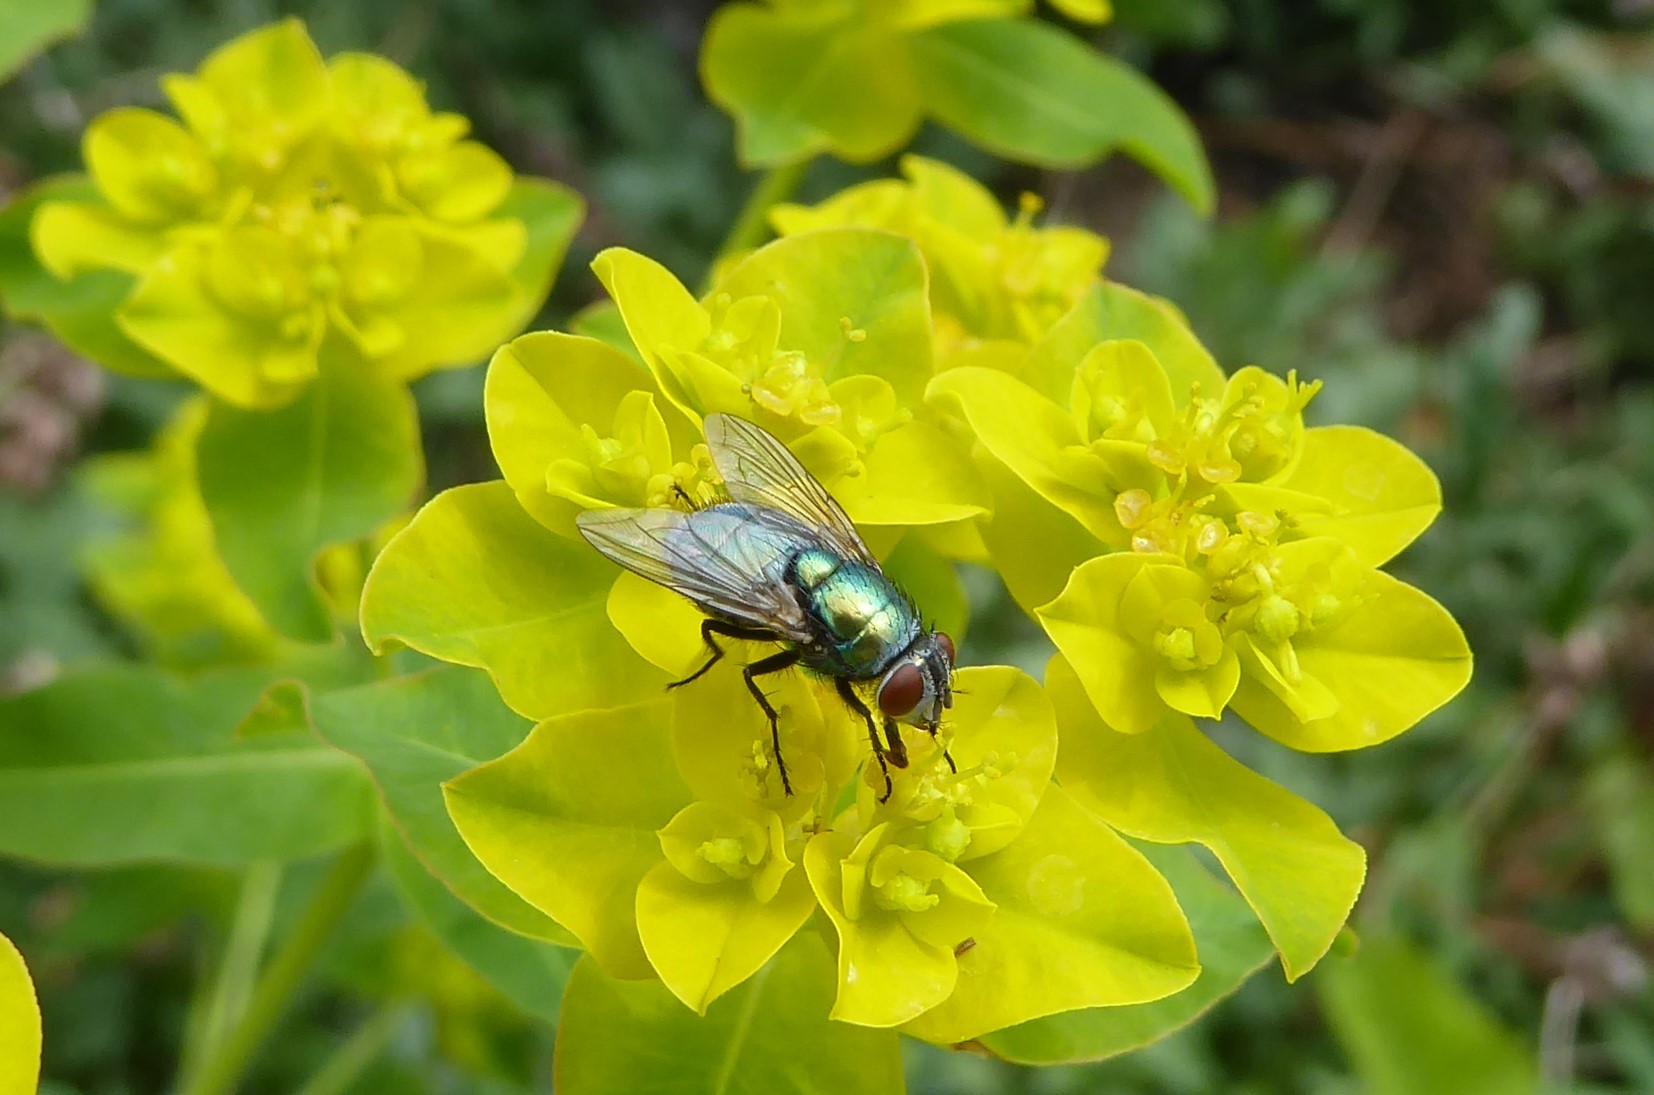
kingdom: Animalia
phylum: Arthropoda
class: Insecta
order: Diptera
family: Calliphoridae
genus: Lucilia
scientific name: Lucilia sericata
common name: Blow fly
